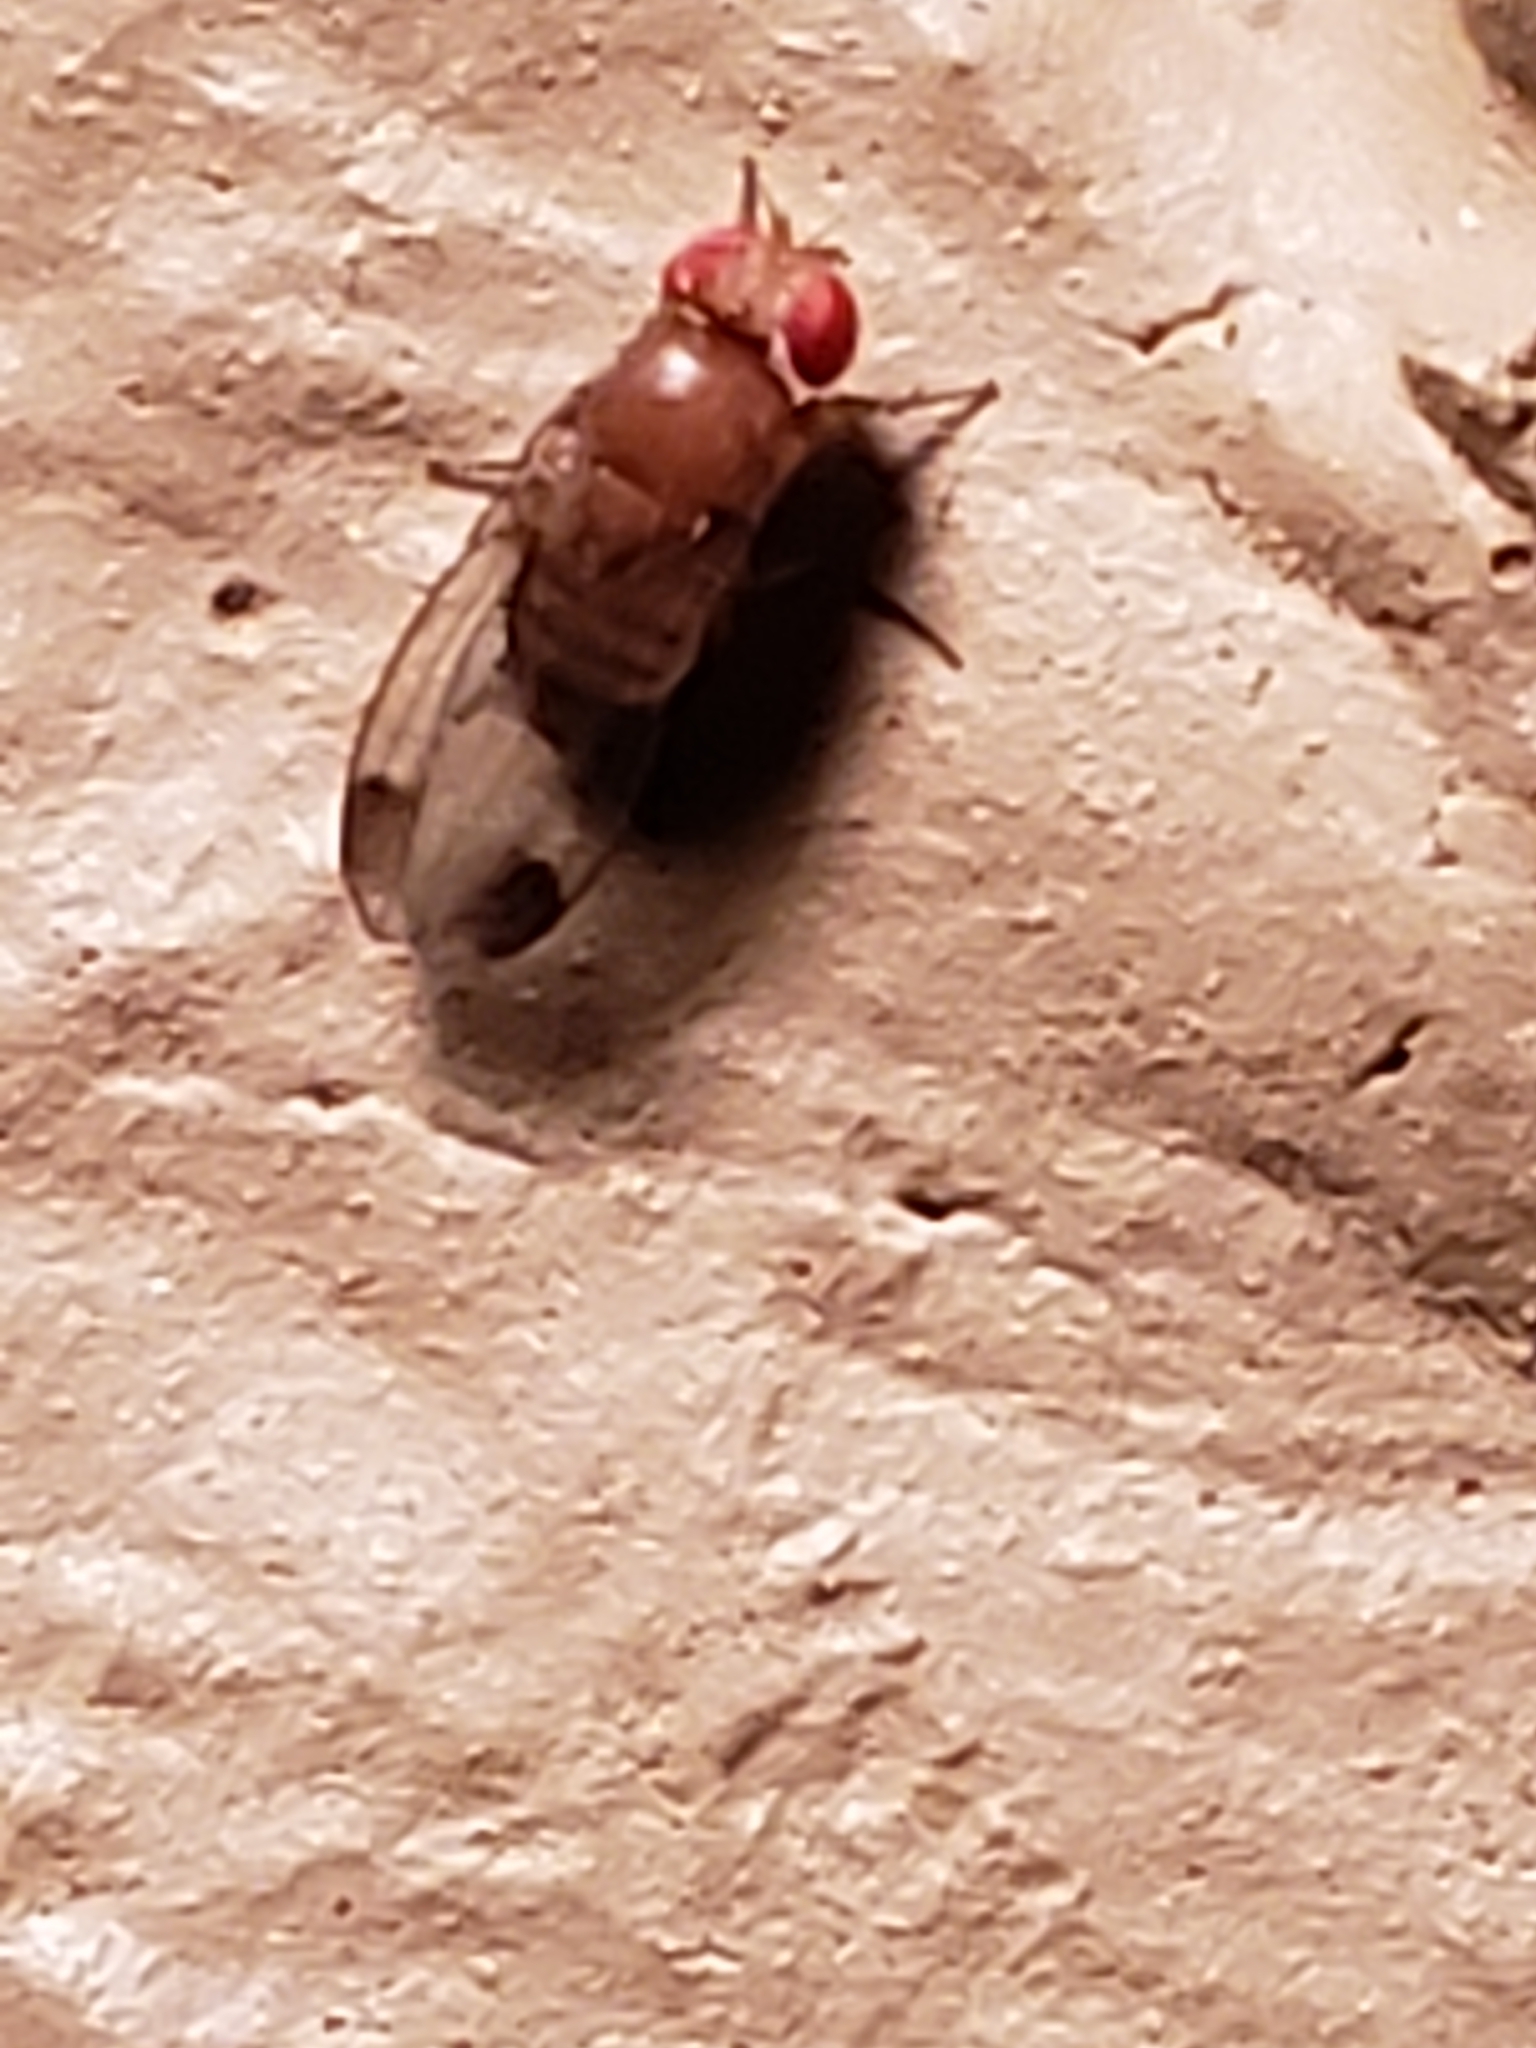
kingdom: Animalia
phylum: Arthropoda
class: Insecta
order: Diptera
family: Drosophilidae
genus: Drosophila
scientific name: Drosophila suzukii
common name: Spotted-wing drosophila
